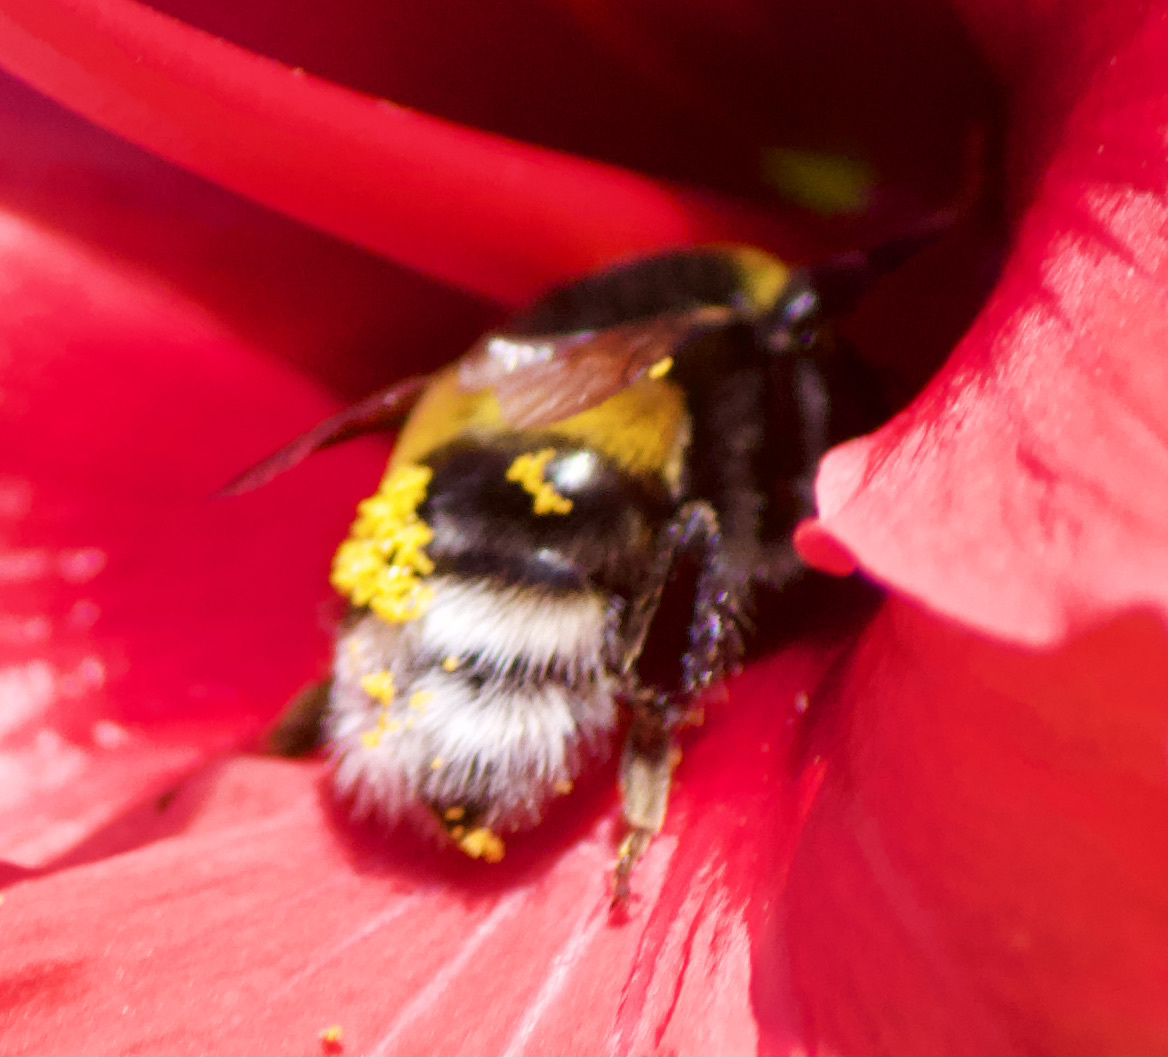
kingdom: Animalia
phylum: Arthropoda
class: Insecta
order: Hymenoptera
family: Apidae
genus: Bombus
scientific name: Bombus terrestris
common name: Buff-tailed bumblebee
